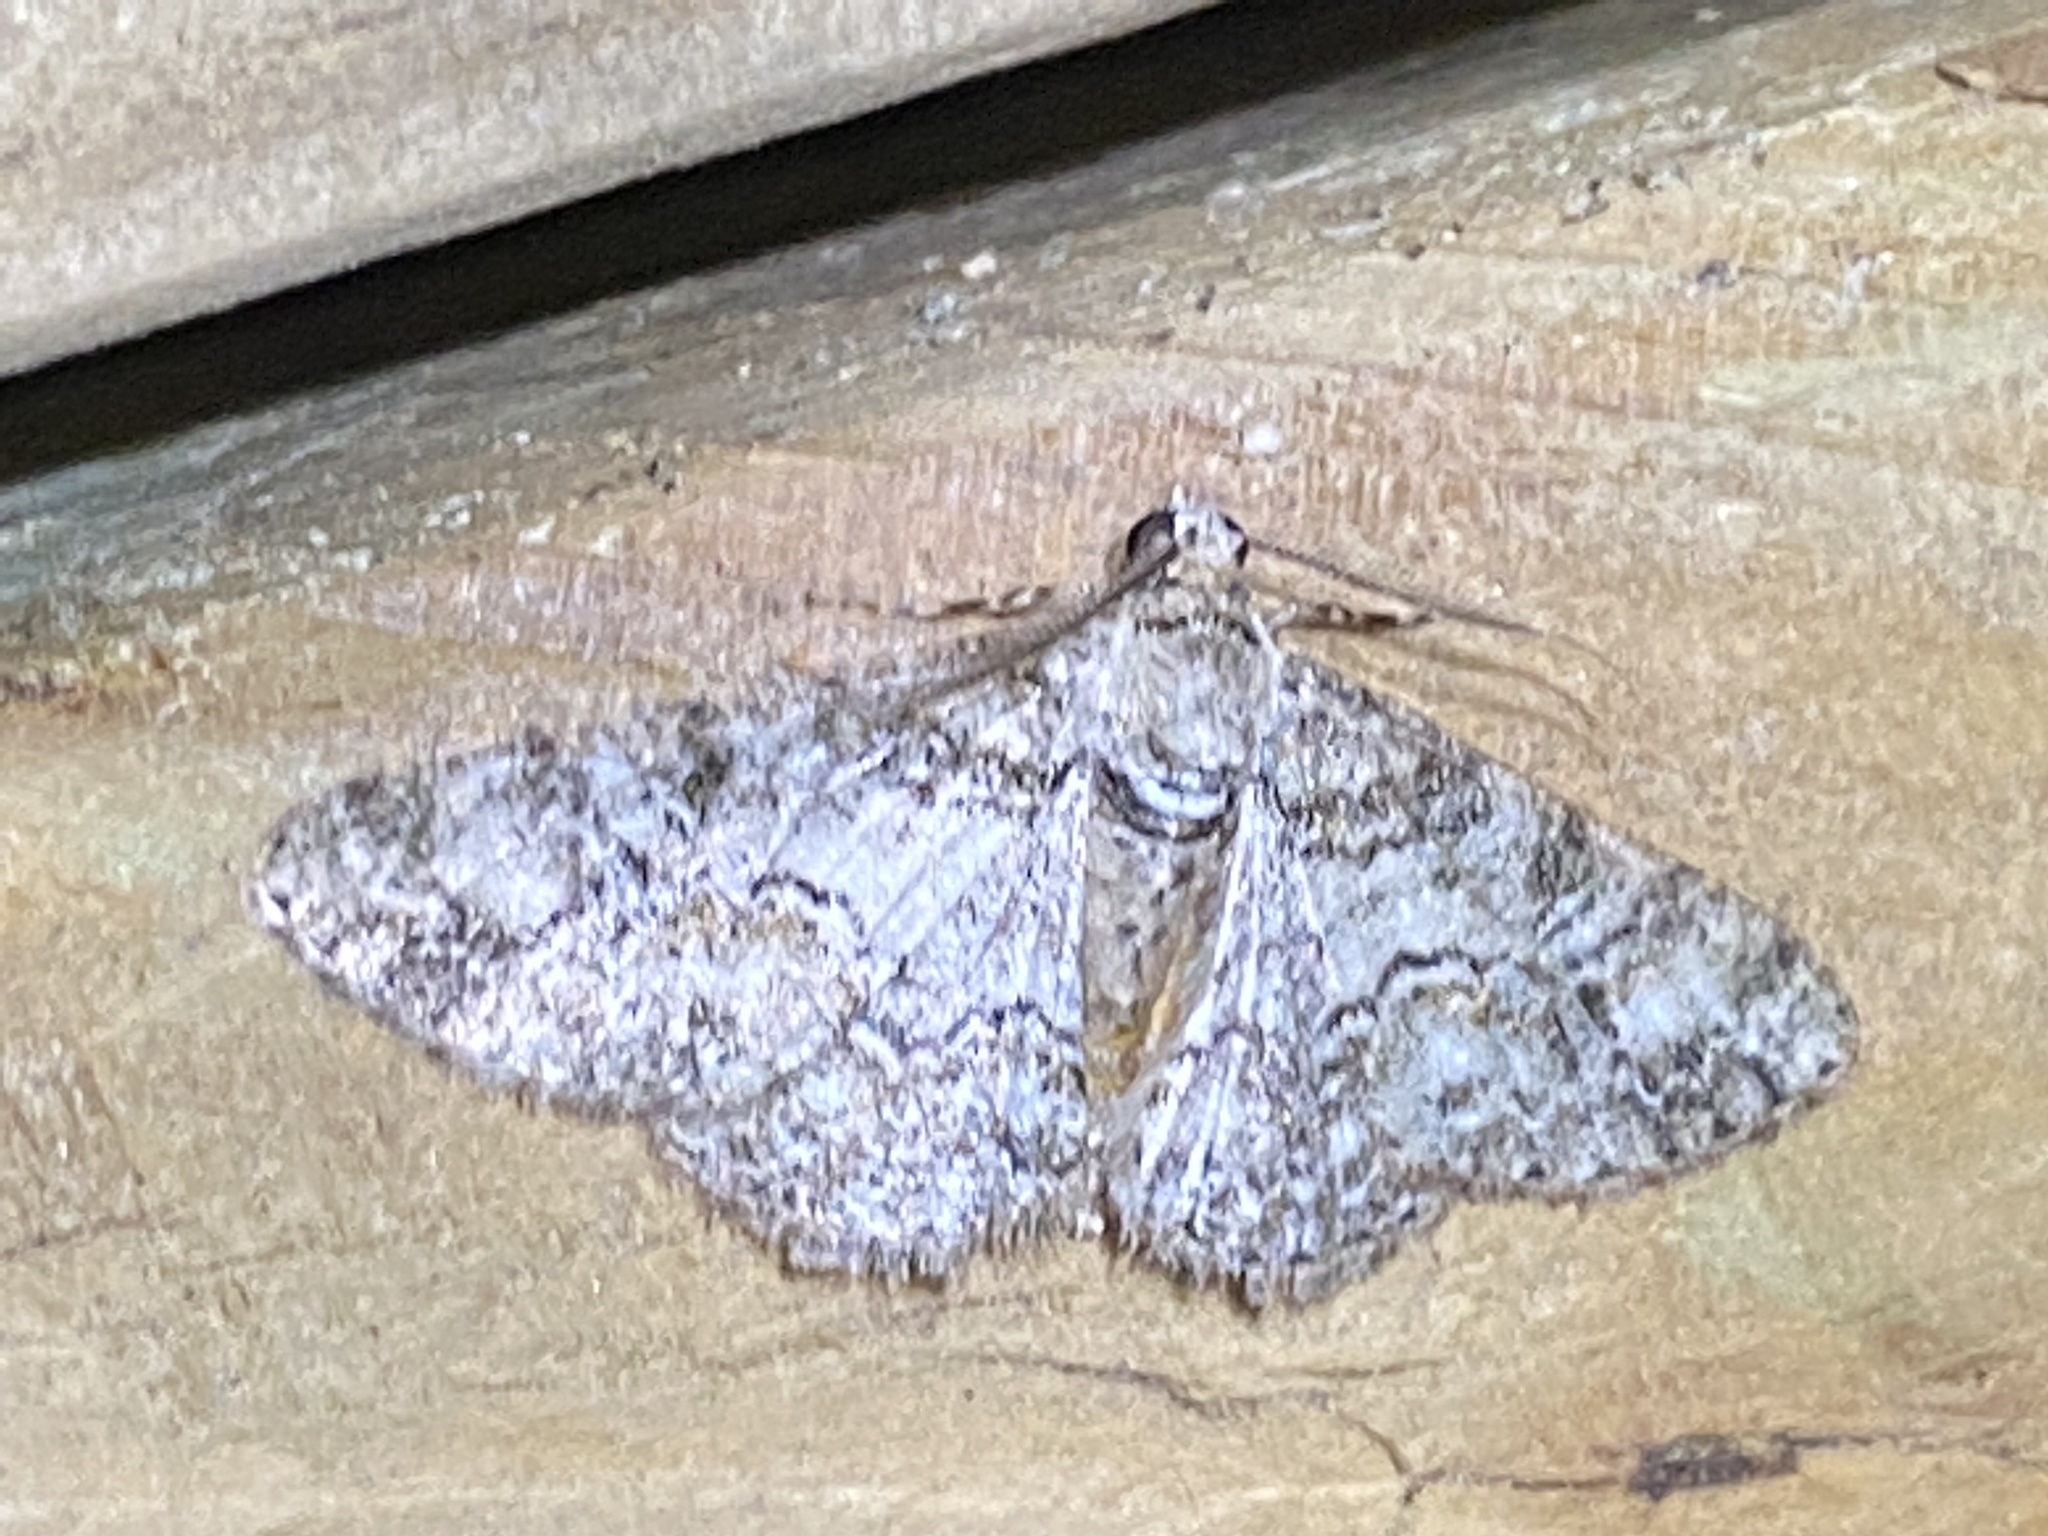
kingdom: Animalia
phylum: Arthropoda
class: Insecta
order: Lepidoptera
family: Geometridae
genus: Cleora
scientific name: Cleora sublunaria
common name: Double-lined gray
